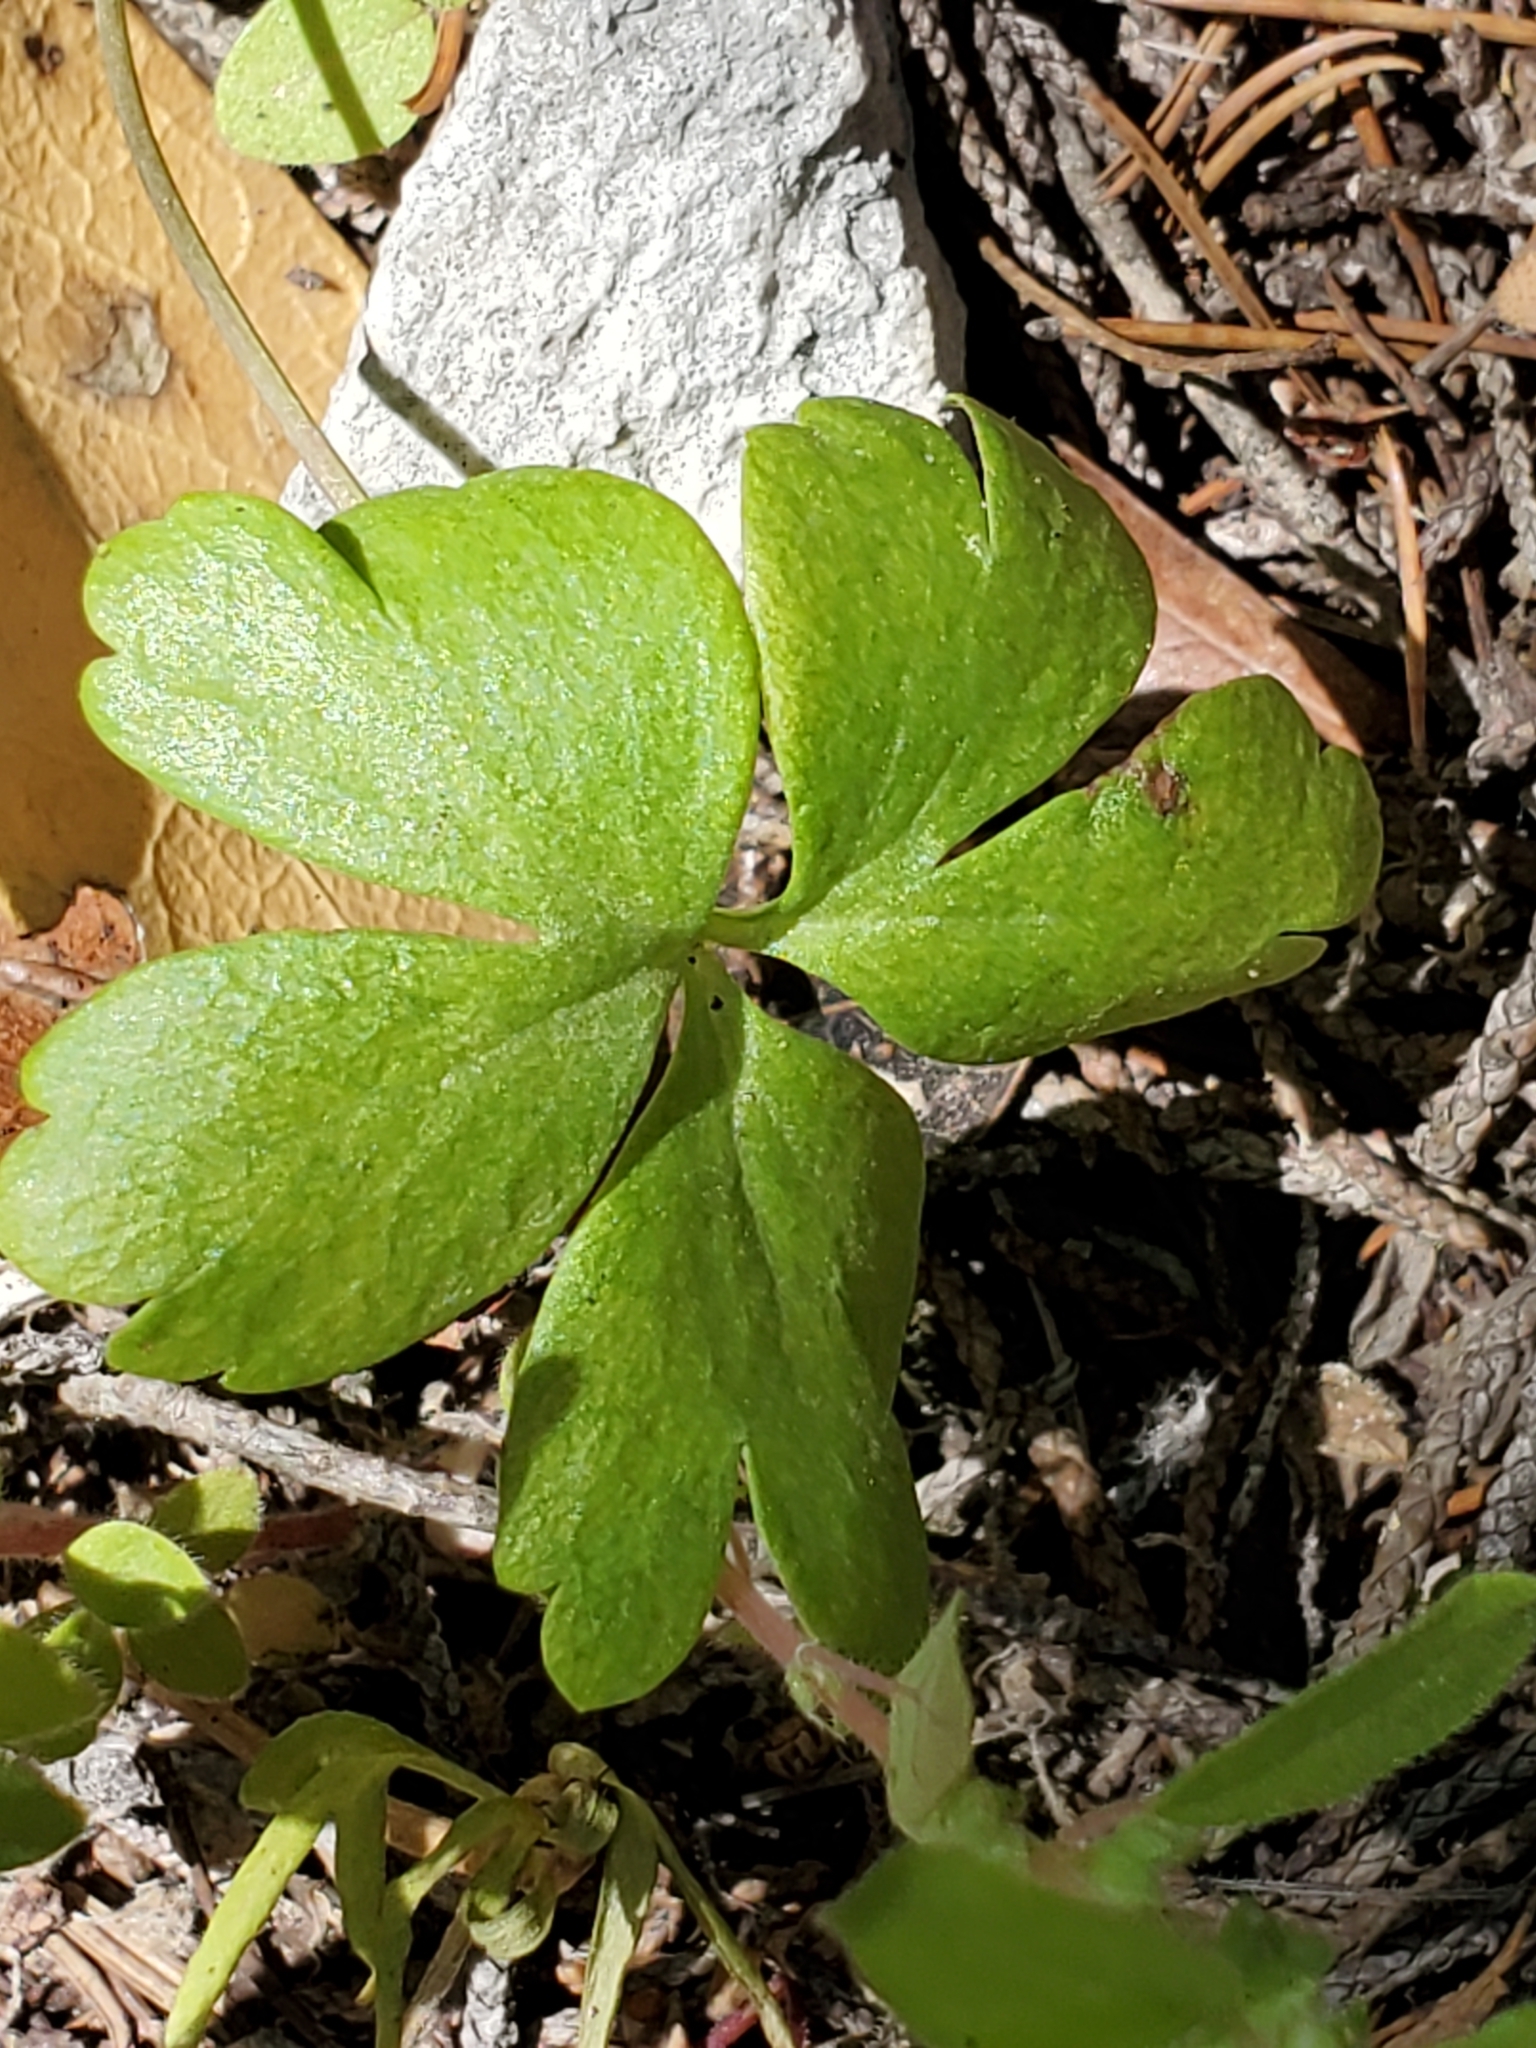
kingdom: Plantae
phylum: Tracheophyta
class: Magnoliopsida
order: Ranunculales
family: Ranunculaceae
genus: Anemone
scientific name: Anemone edwardsiana
